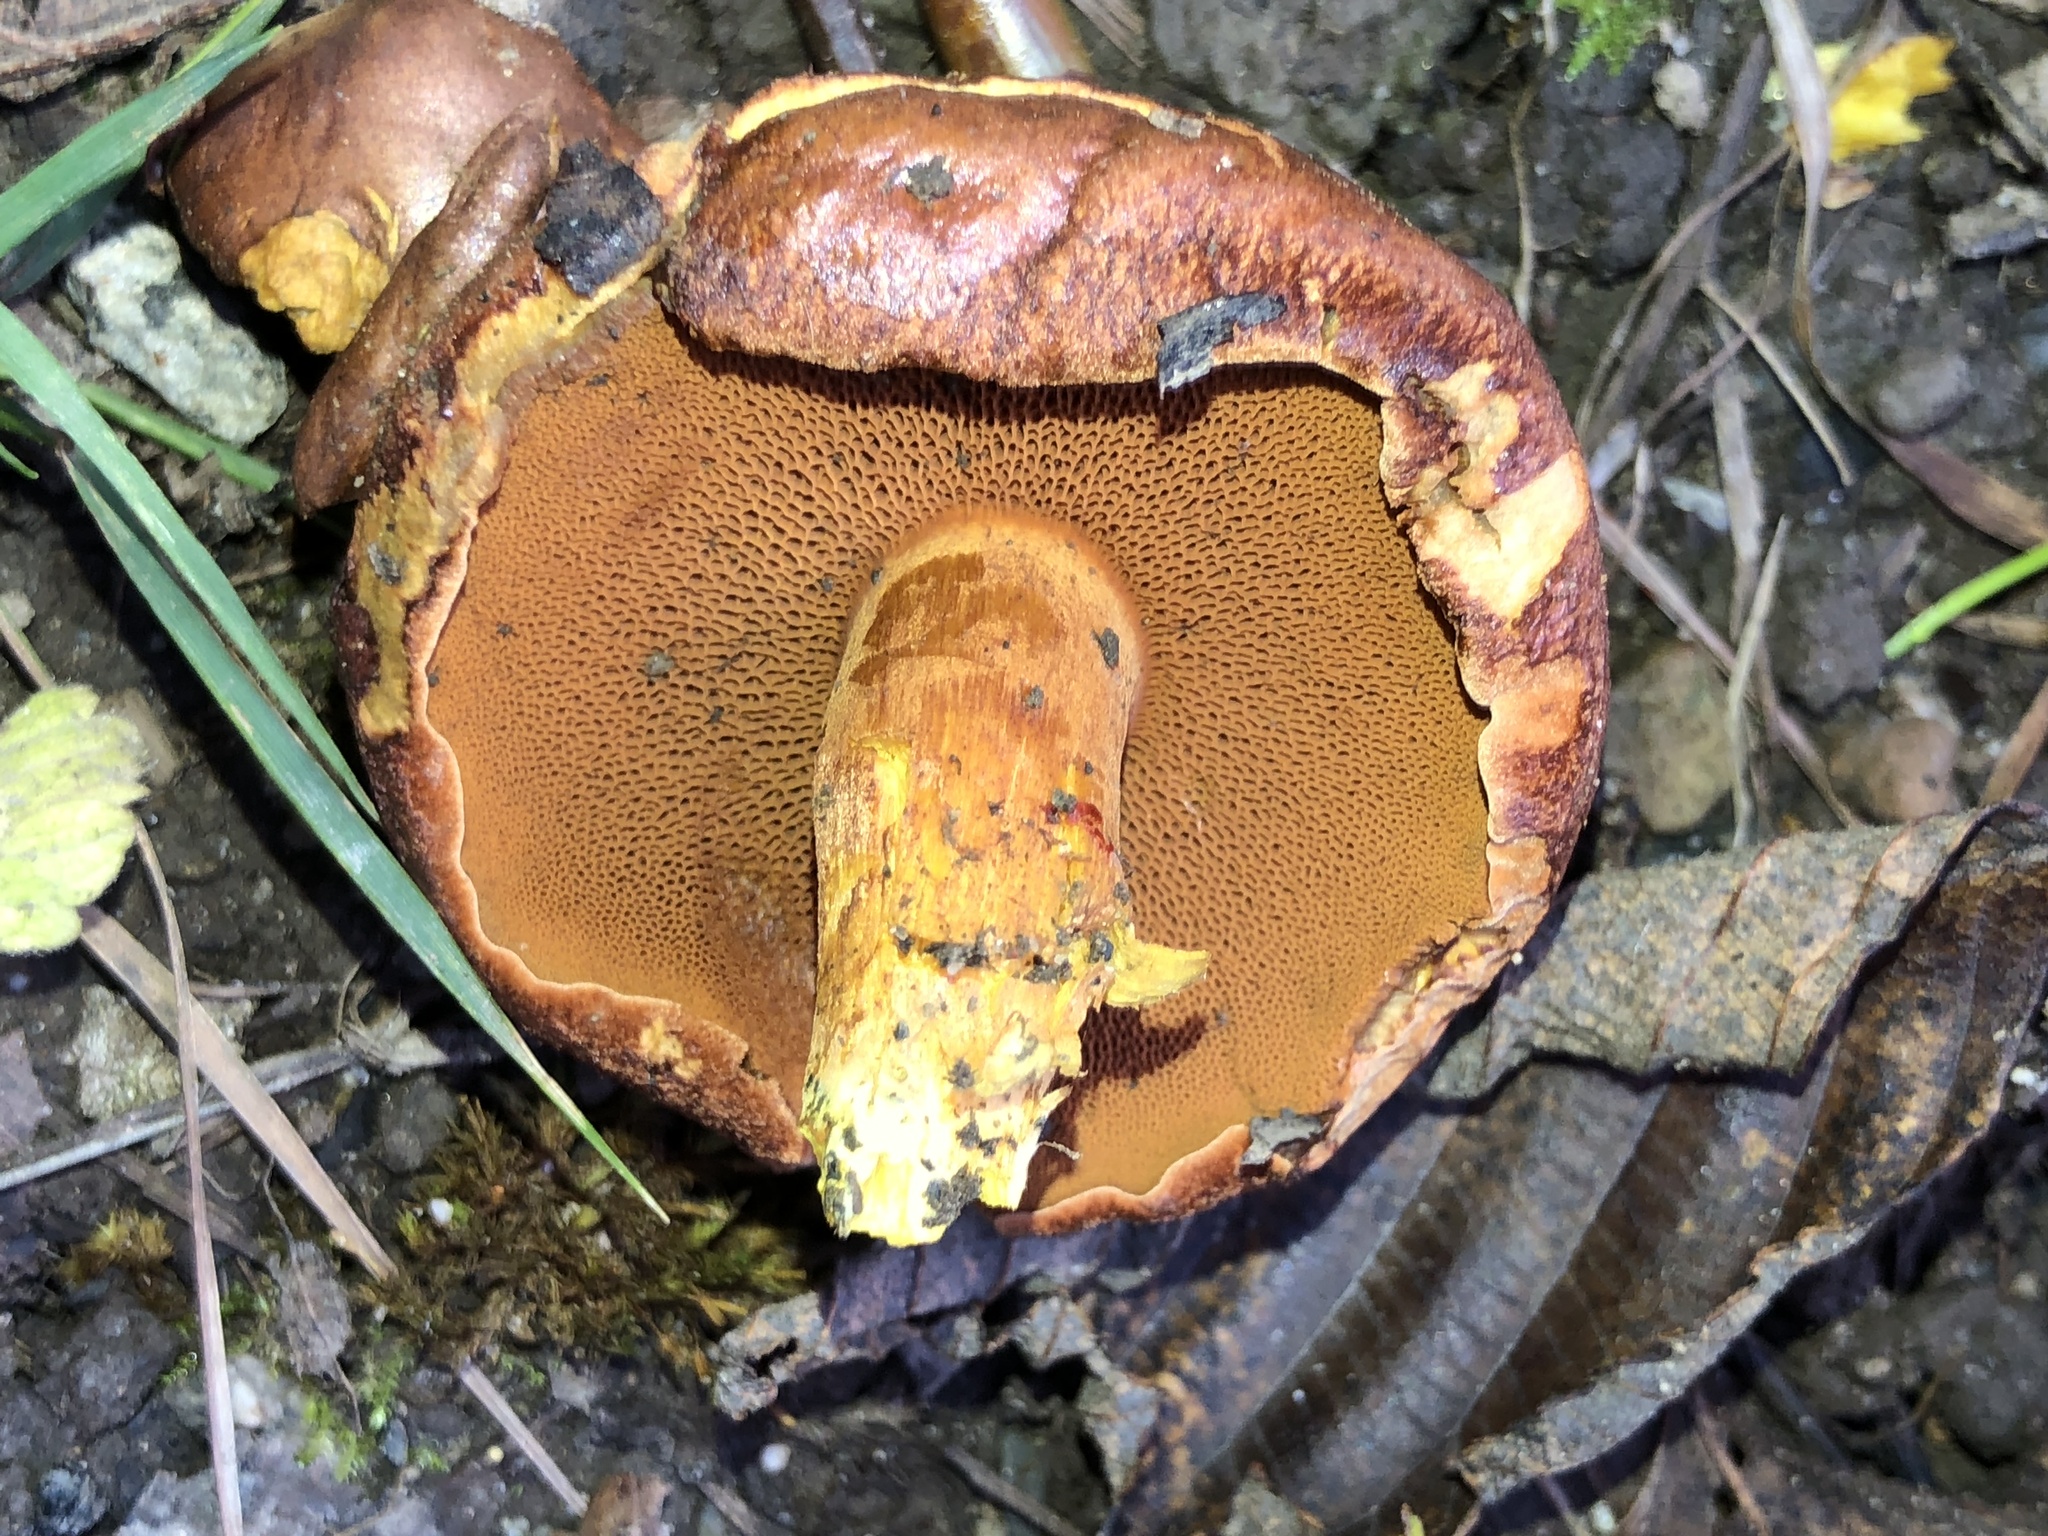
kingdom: Fungi
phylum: Basidiomycota
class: Agaricomycetes
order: Boletales
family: Boletaceae
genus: Chalciporus
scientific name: Chalciporus piperatus
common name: Peppery bolete
